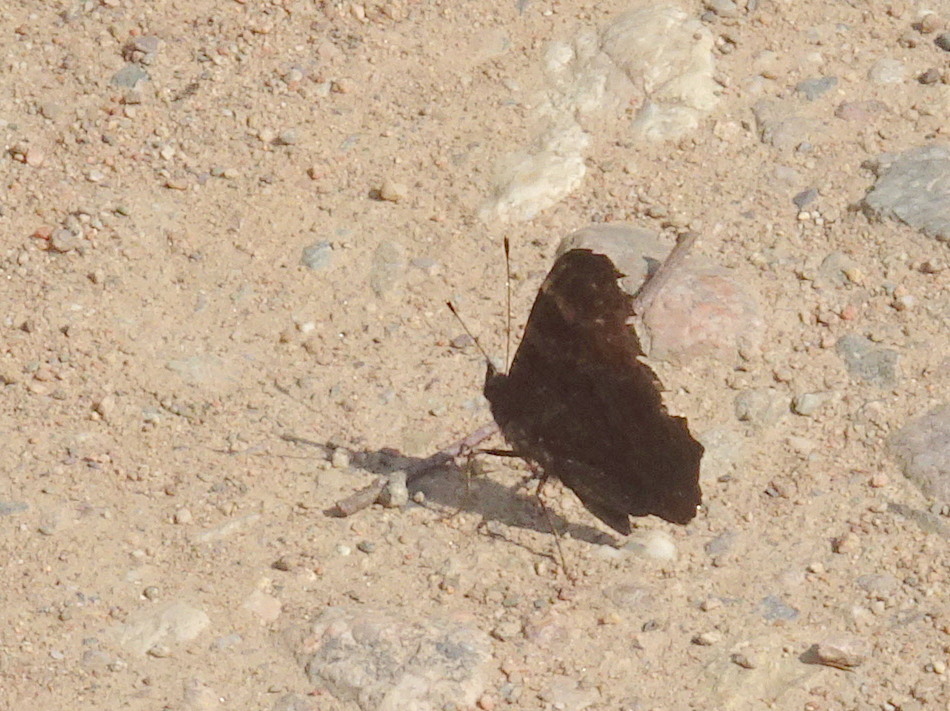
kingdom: Animalia
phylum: Arthropoda
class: Insecta
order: Lepidoptera
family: Nymphalidae
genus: Aglais
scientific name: Aglais io
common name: Peacock
